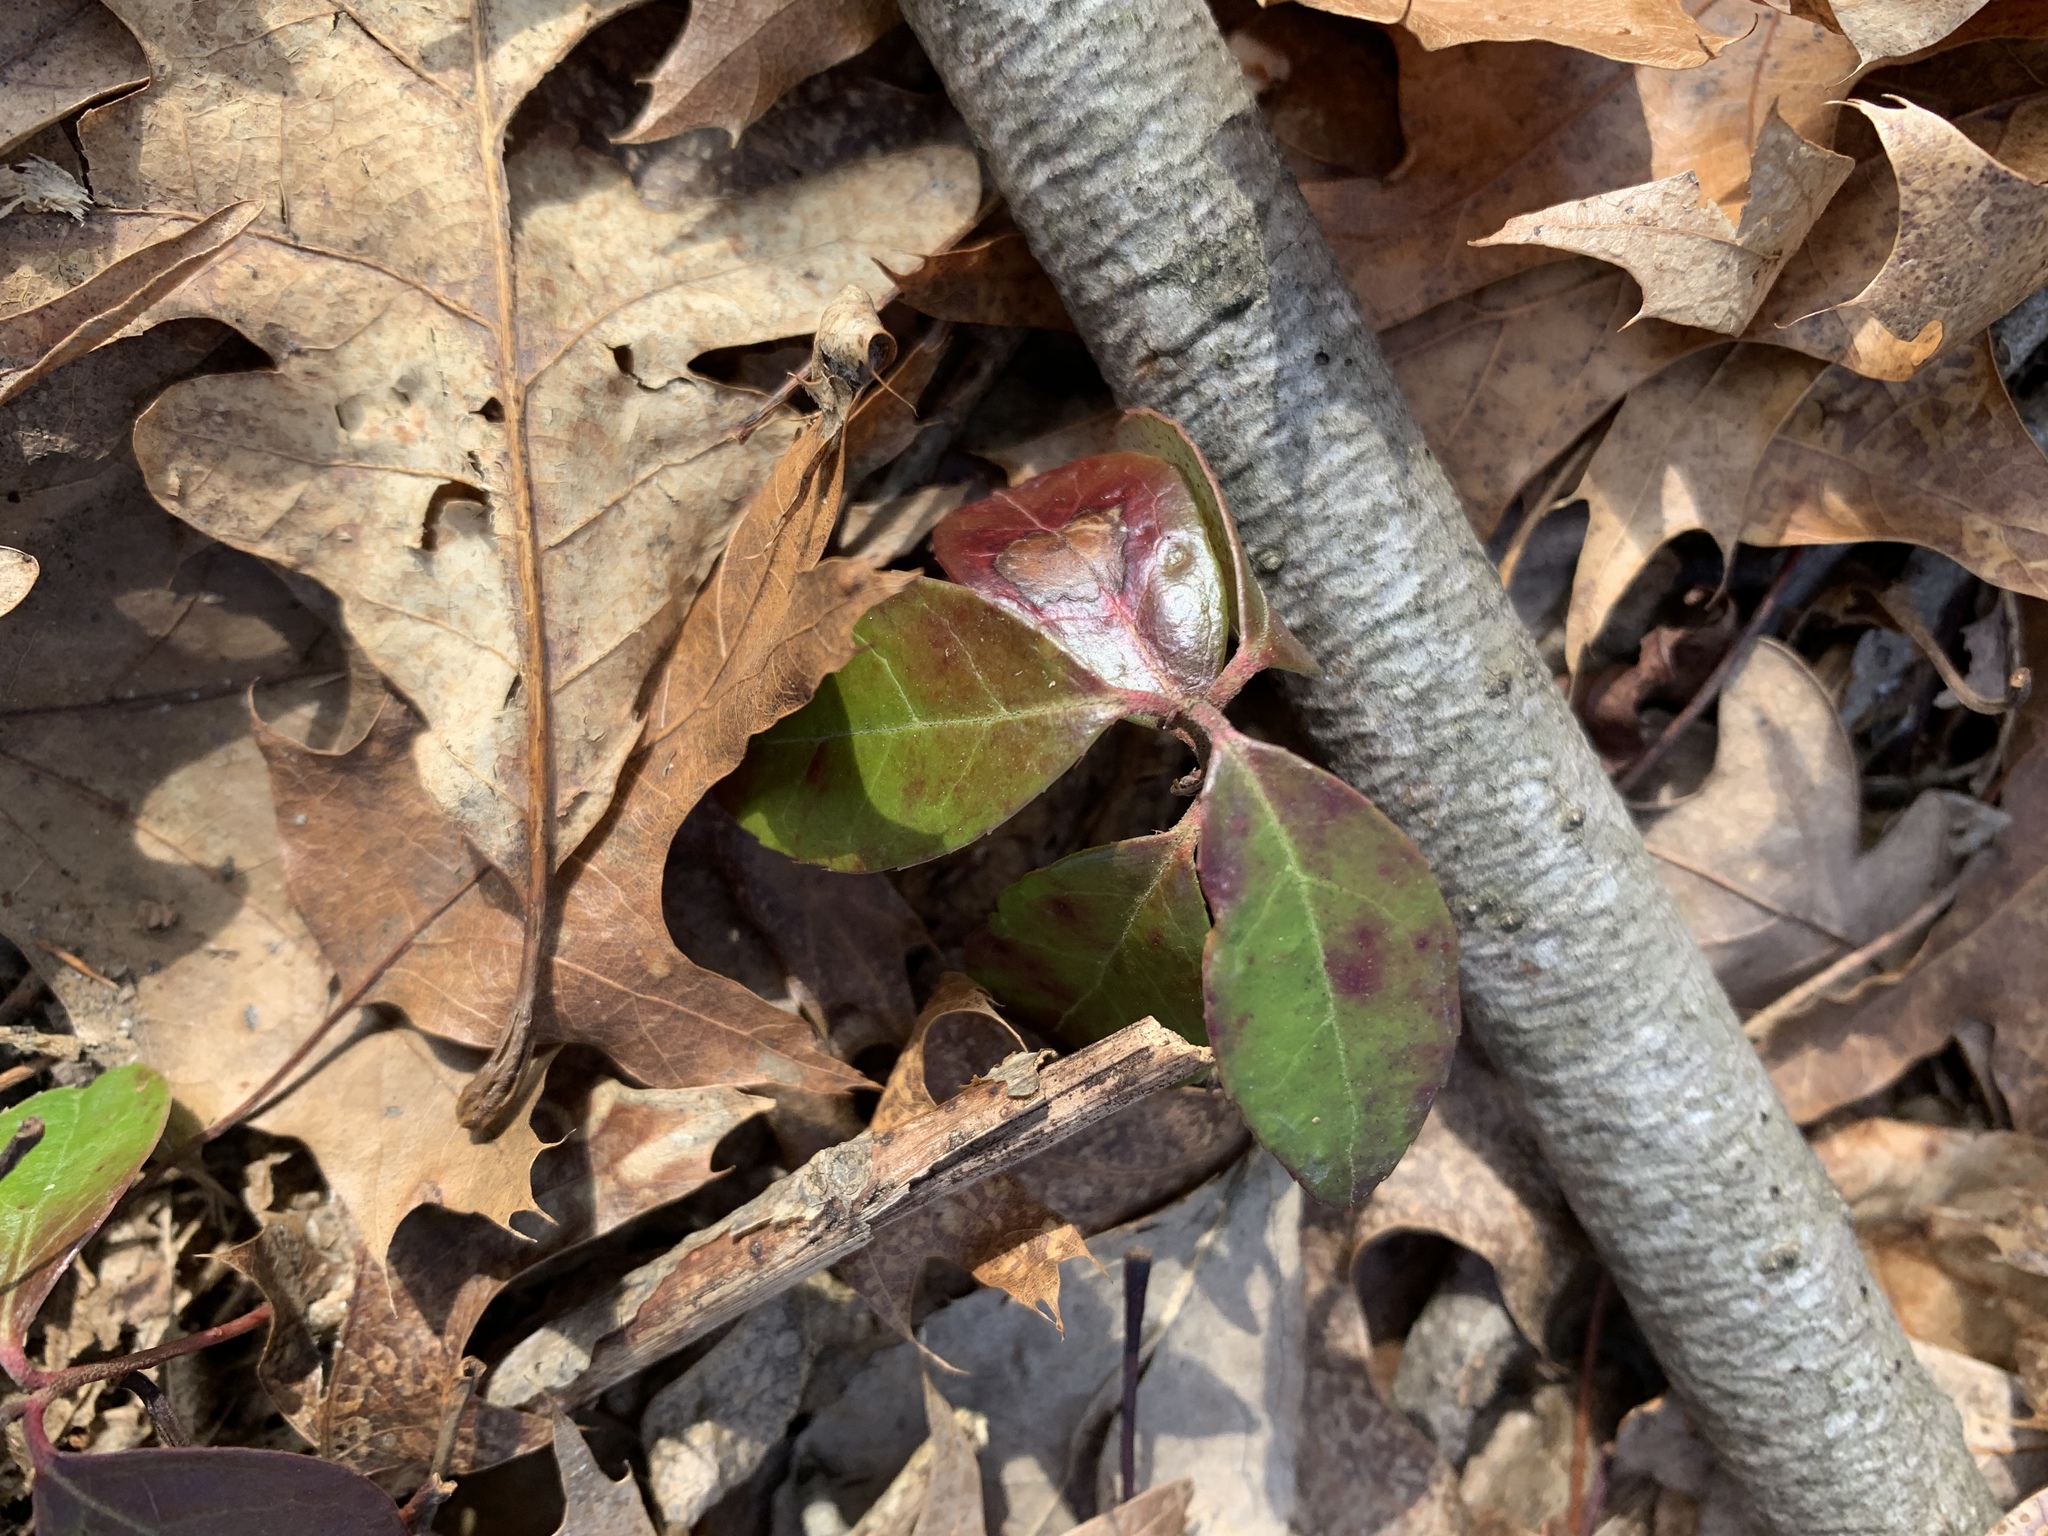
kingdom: Plantae
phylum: Tracheophyta
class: Magnoliopsida
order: Ericales
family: Ericaceae
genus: Gaultheria
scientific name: Gaultheria procumbens
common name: Checkerberry
